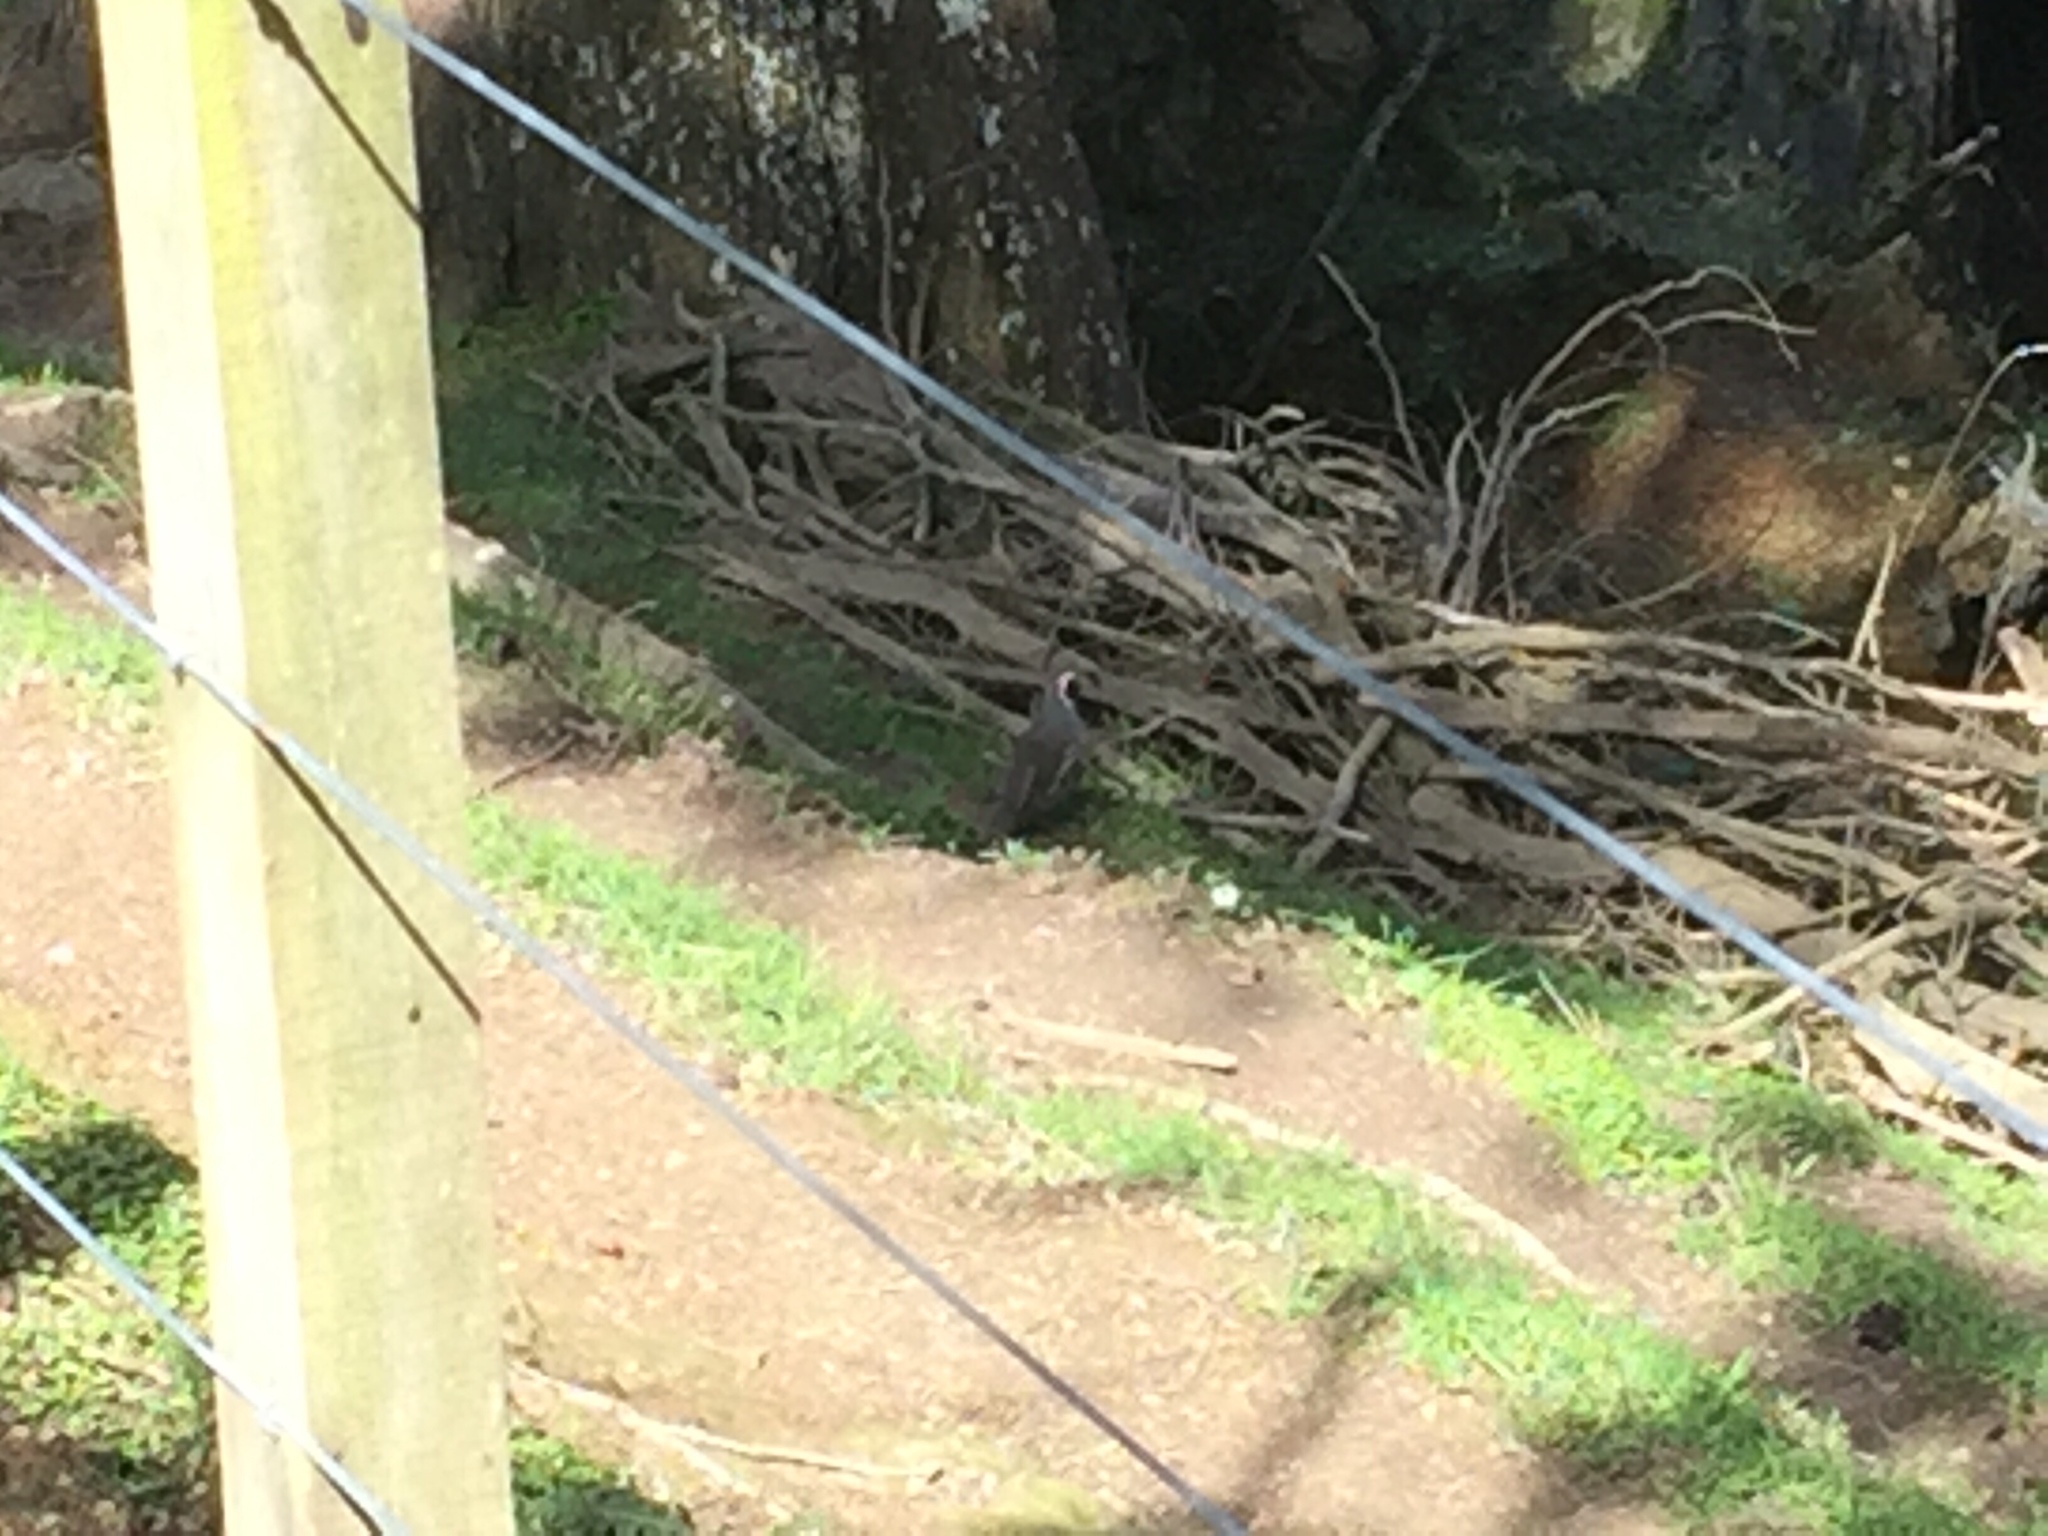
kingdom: Animalia
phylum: Chordata
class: Aves
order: Galliformes
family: Odontophoridae
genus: Callipepla
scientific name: Callipepla californica
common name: California quail
